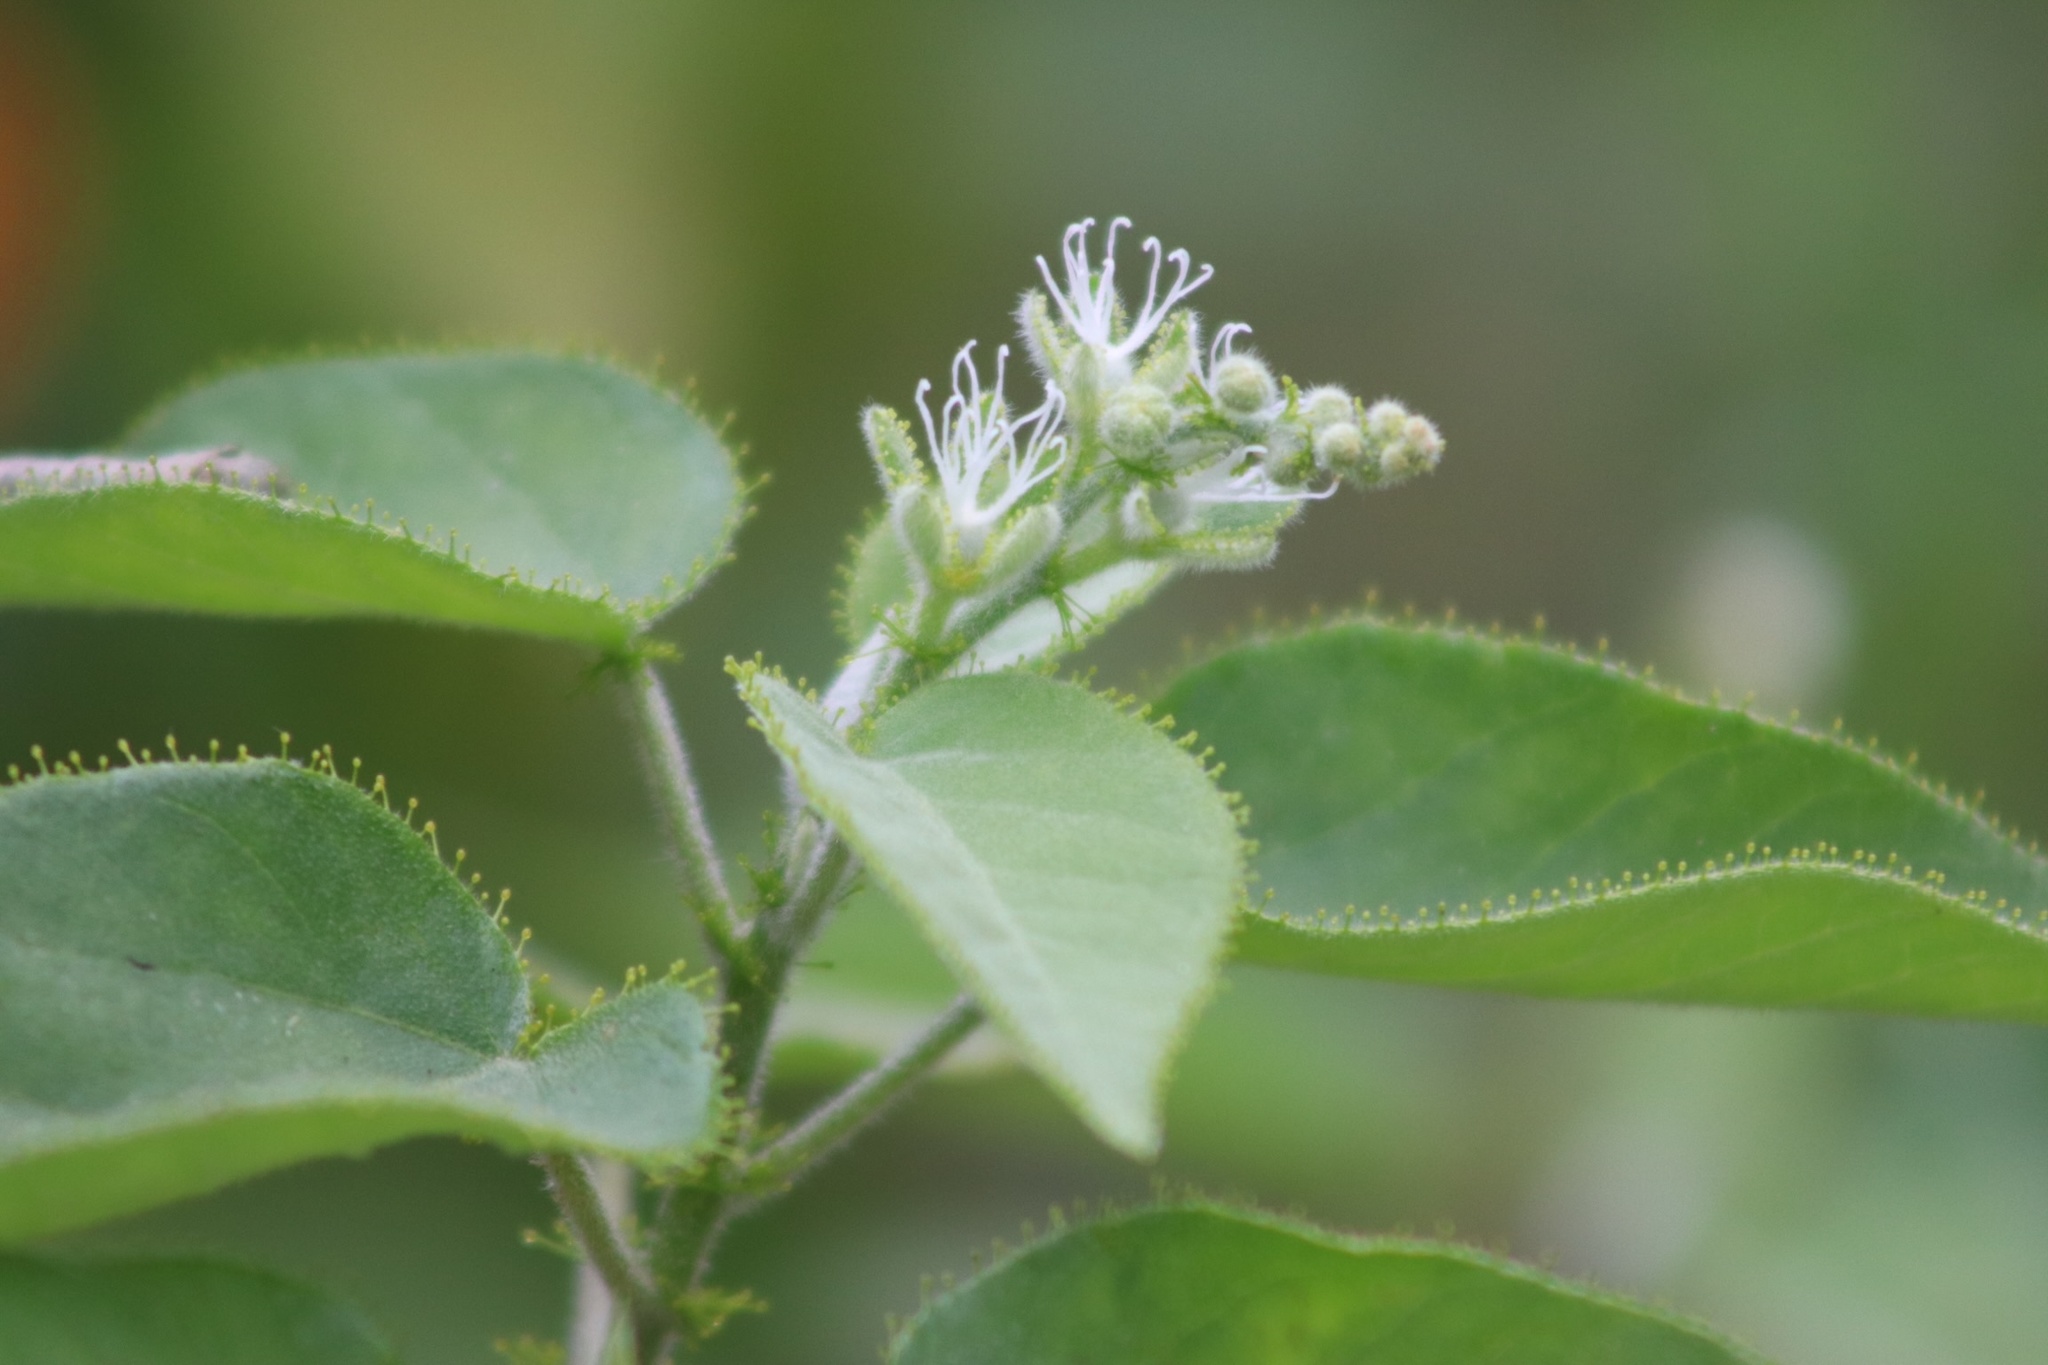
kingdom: Plantae
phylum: Tracheophyta
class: Magnoliopsida
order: Malpighiales
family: Euphorbiaceae
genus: Croton
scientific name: Croton ciliatoglandulifer
